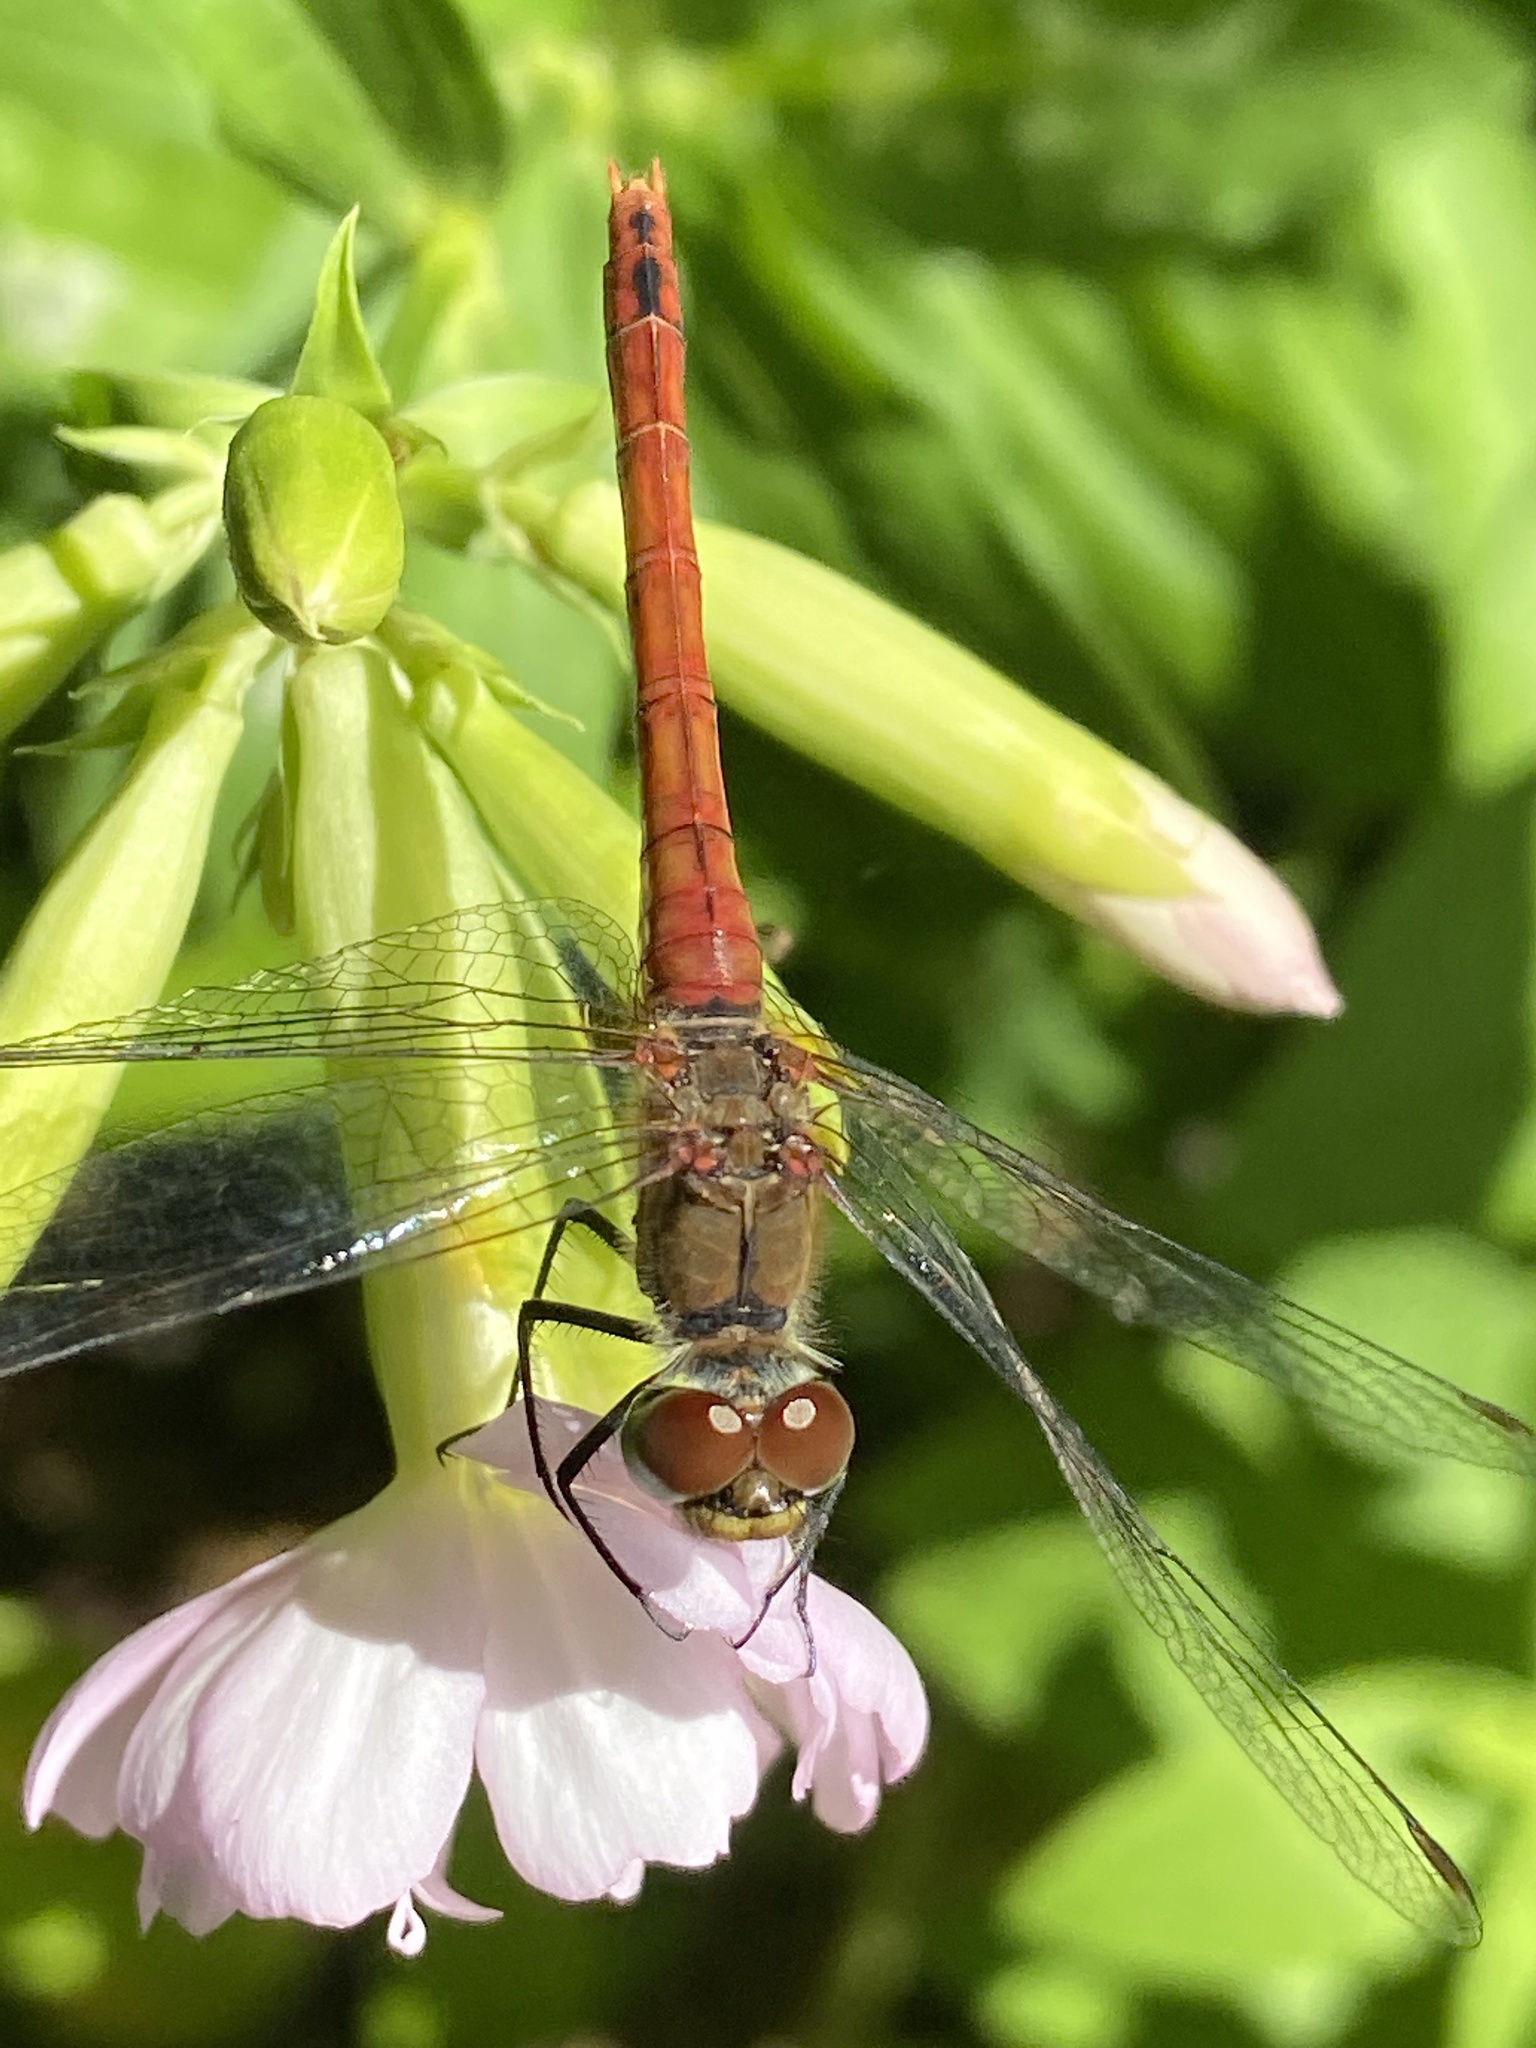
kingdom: Animalia
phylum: Arthropoda
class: Insecta
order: Odonata
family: Libellulidae
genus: Sympetrum
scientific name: Sympetrum sanguineum
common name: Ruddy darter
